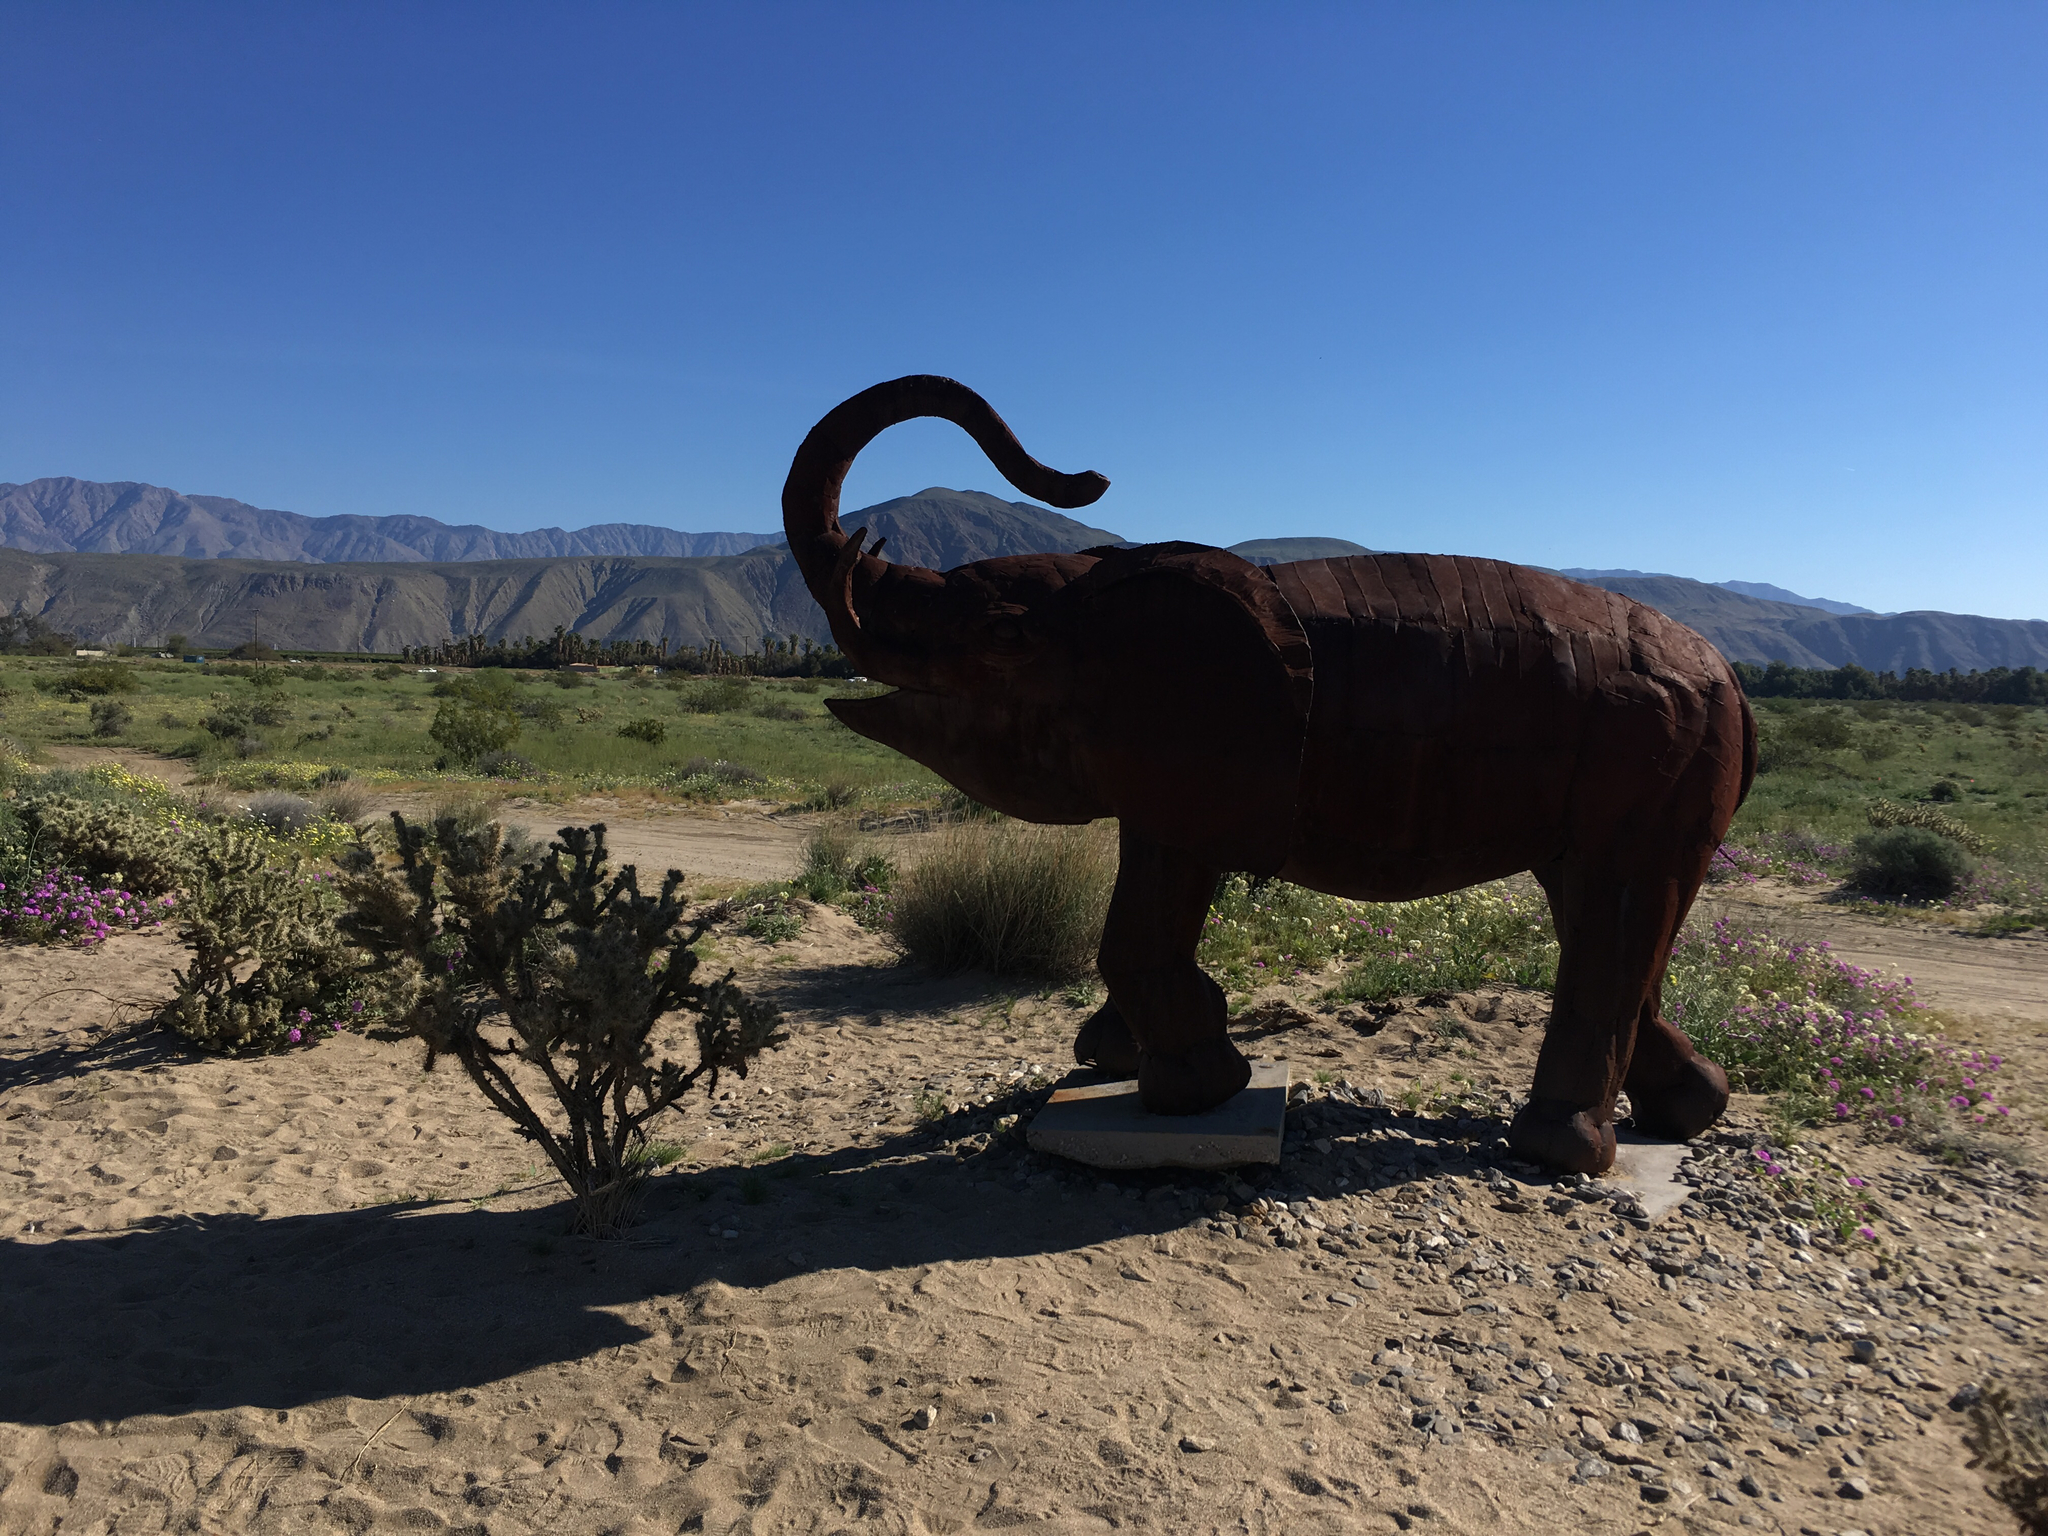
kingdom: Plantae
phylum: Tracheophyta
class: Magnoliopsida
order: Caryophyllales
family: Cactaceae
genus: Cylindropuntia
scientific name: Cylindropuntia ganderi
